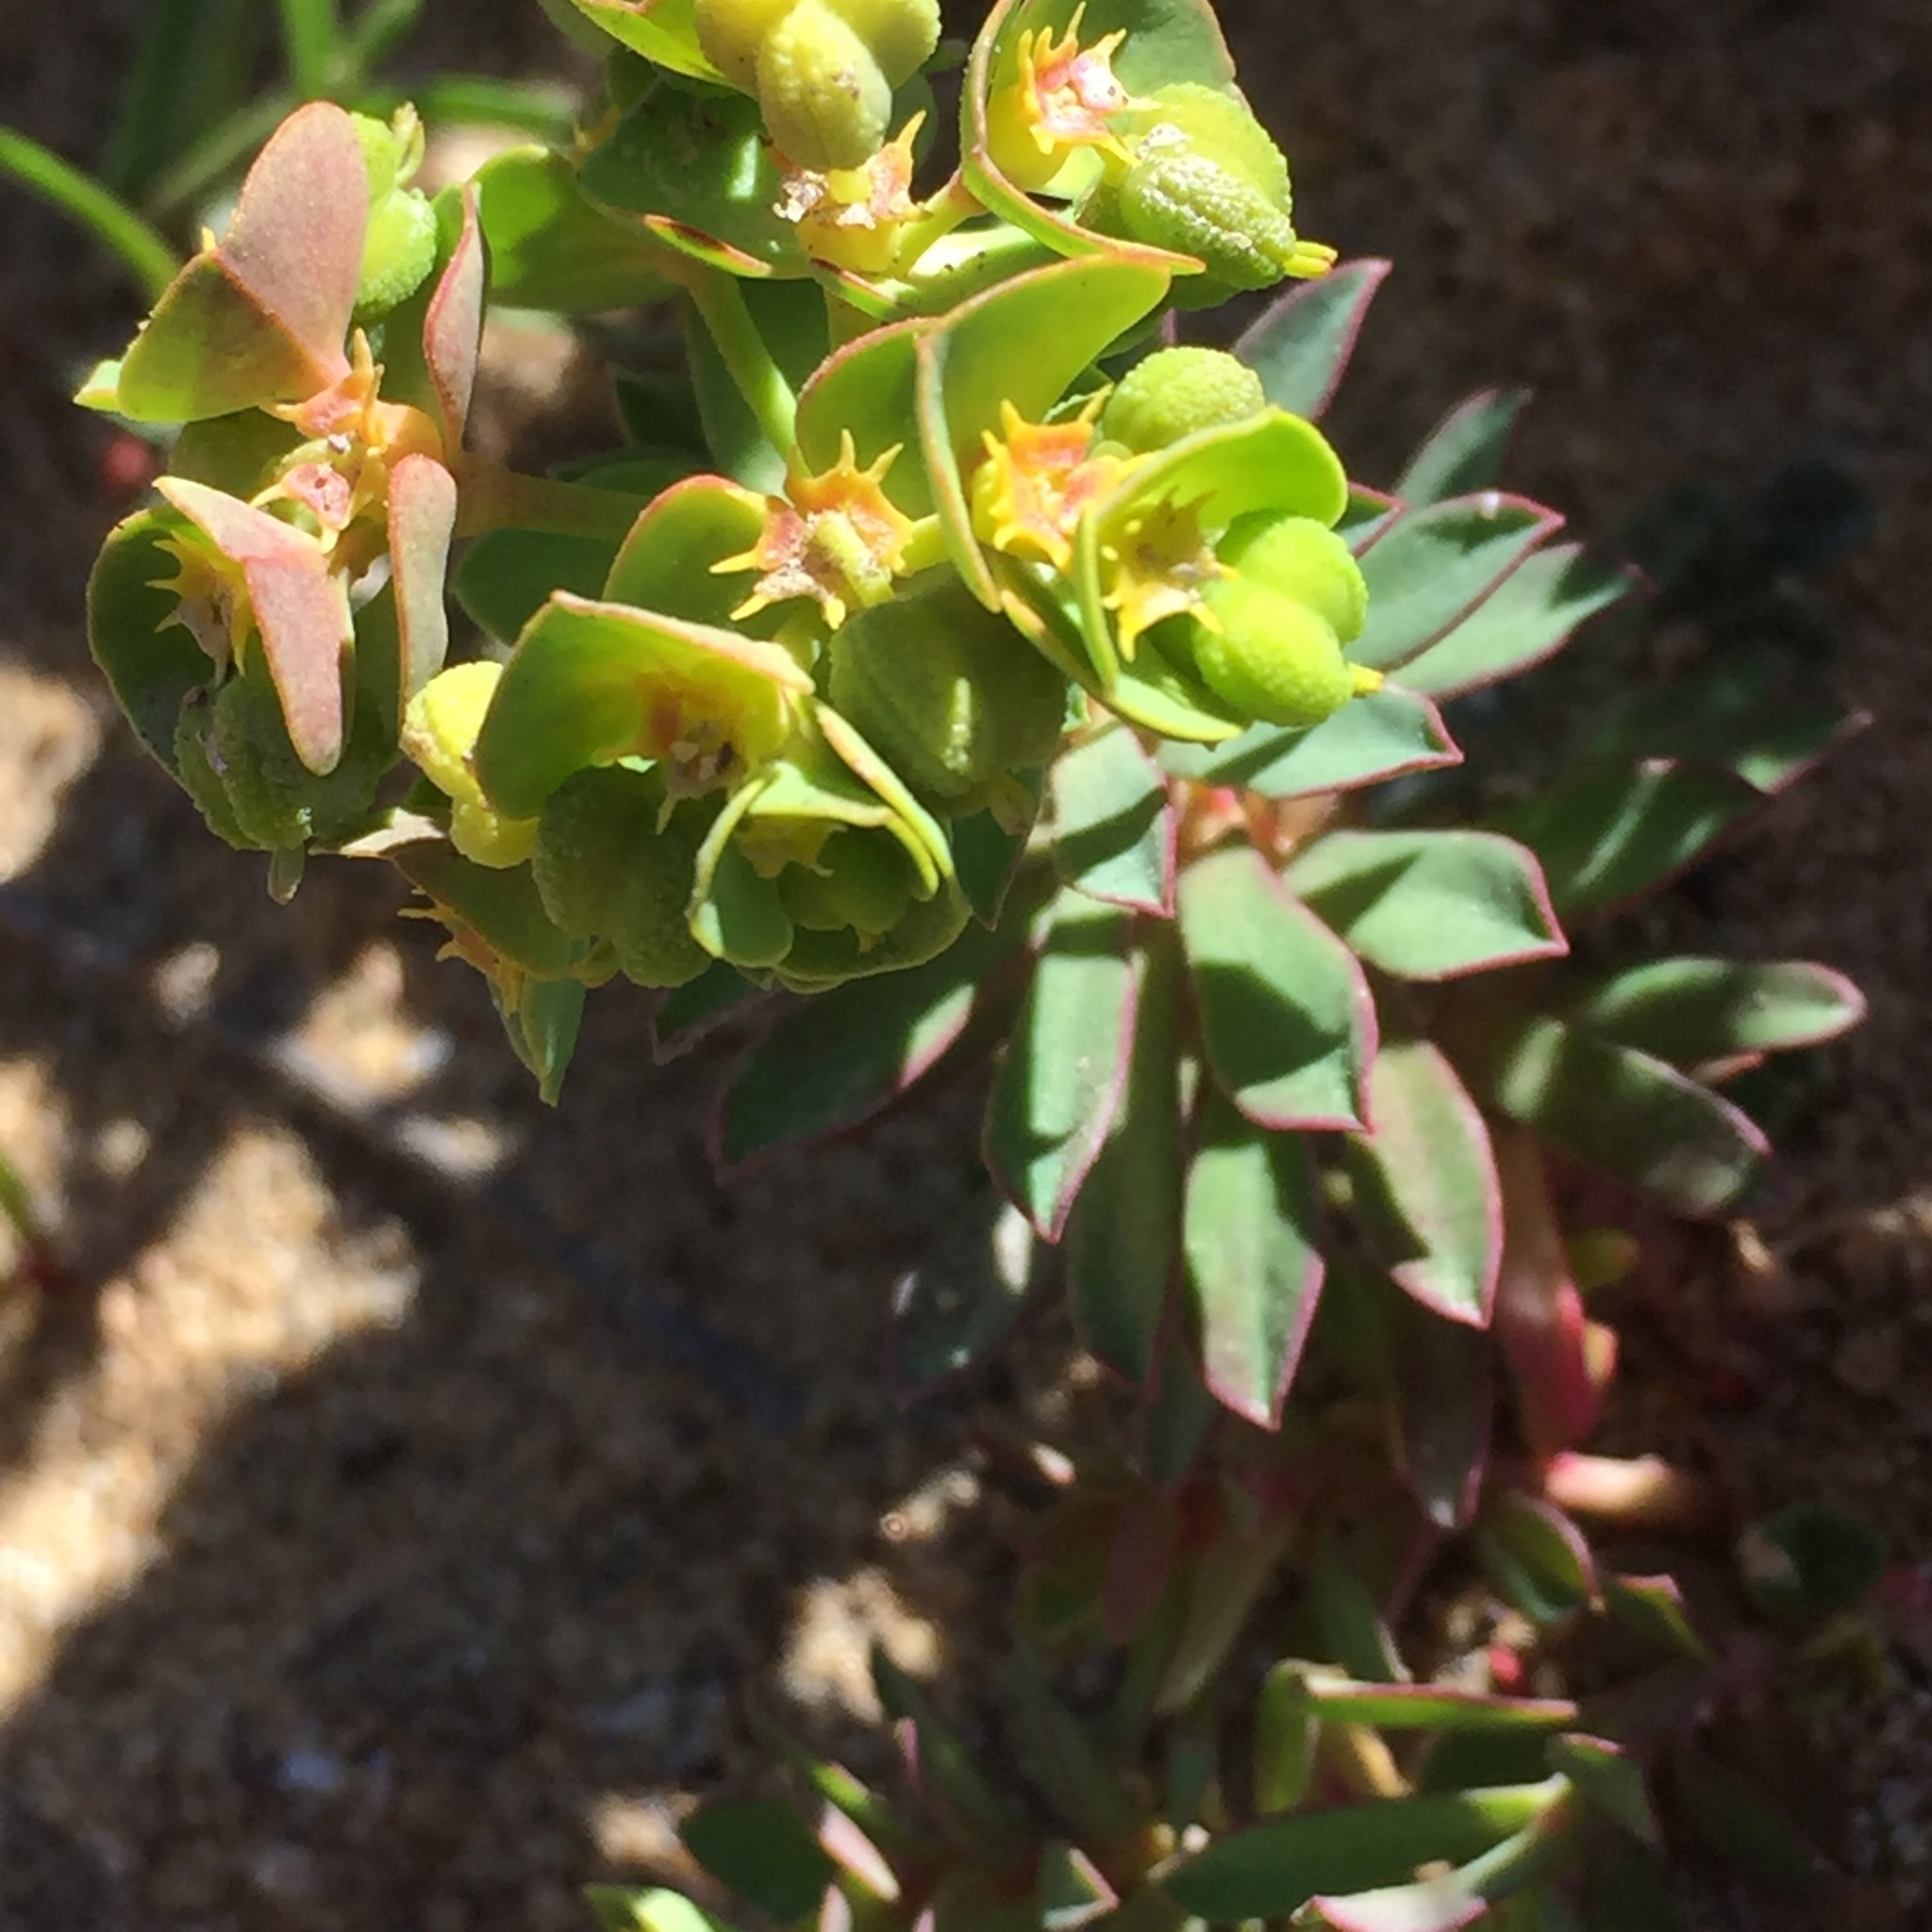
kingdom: Plantae
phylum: Tracheophyta
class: Magnoliopsida
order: Malpighiales
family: Euphorbiaceae
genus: Euphorbia
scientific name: Euphorbia paralias
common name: Sea spurge
